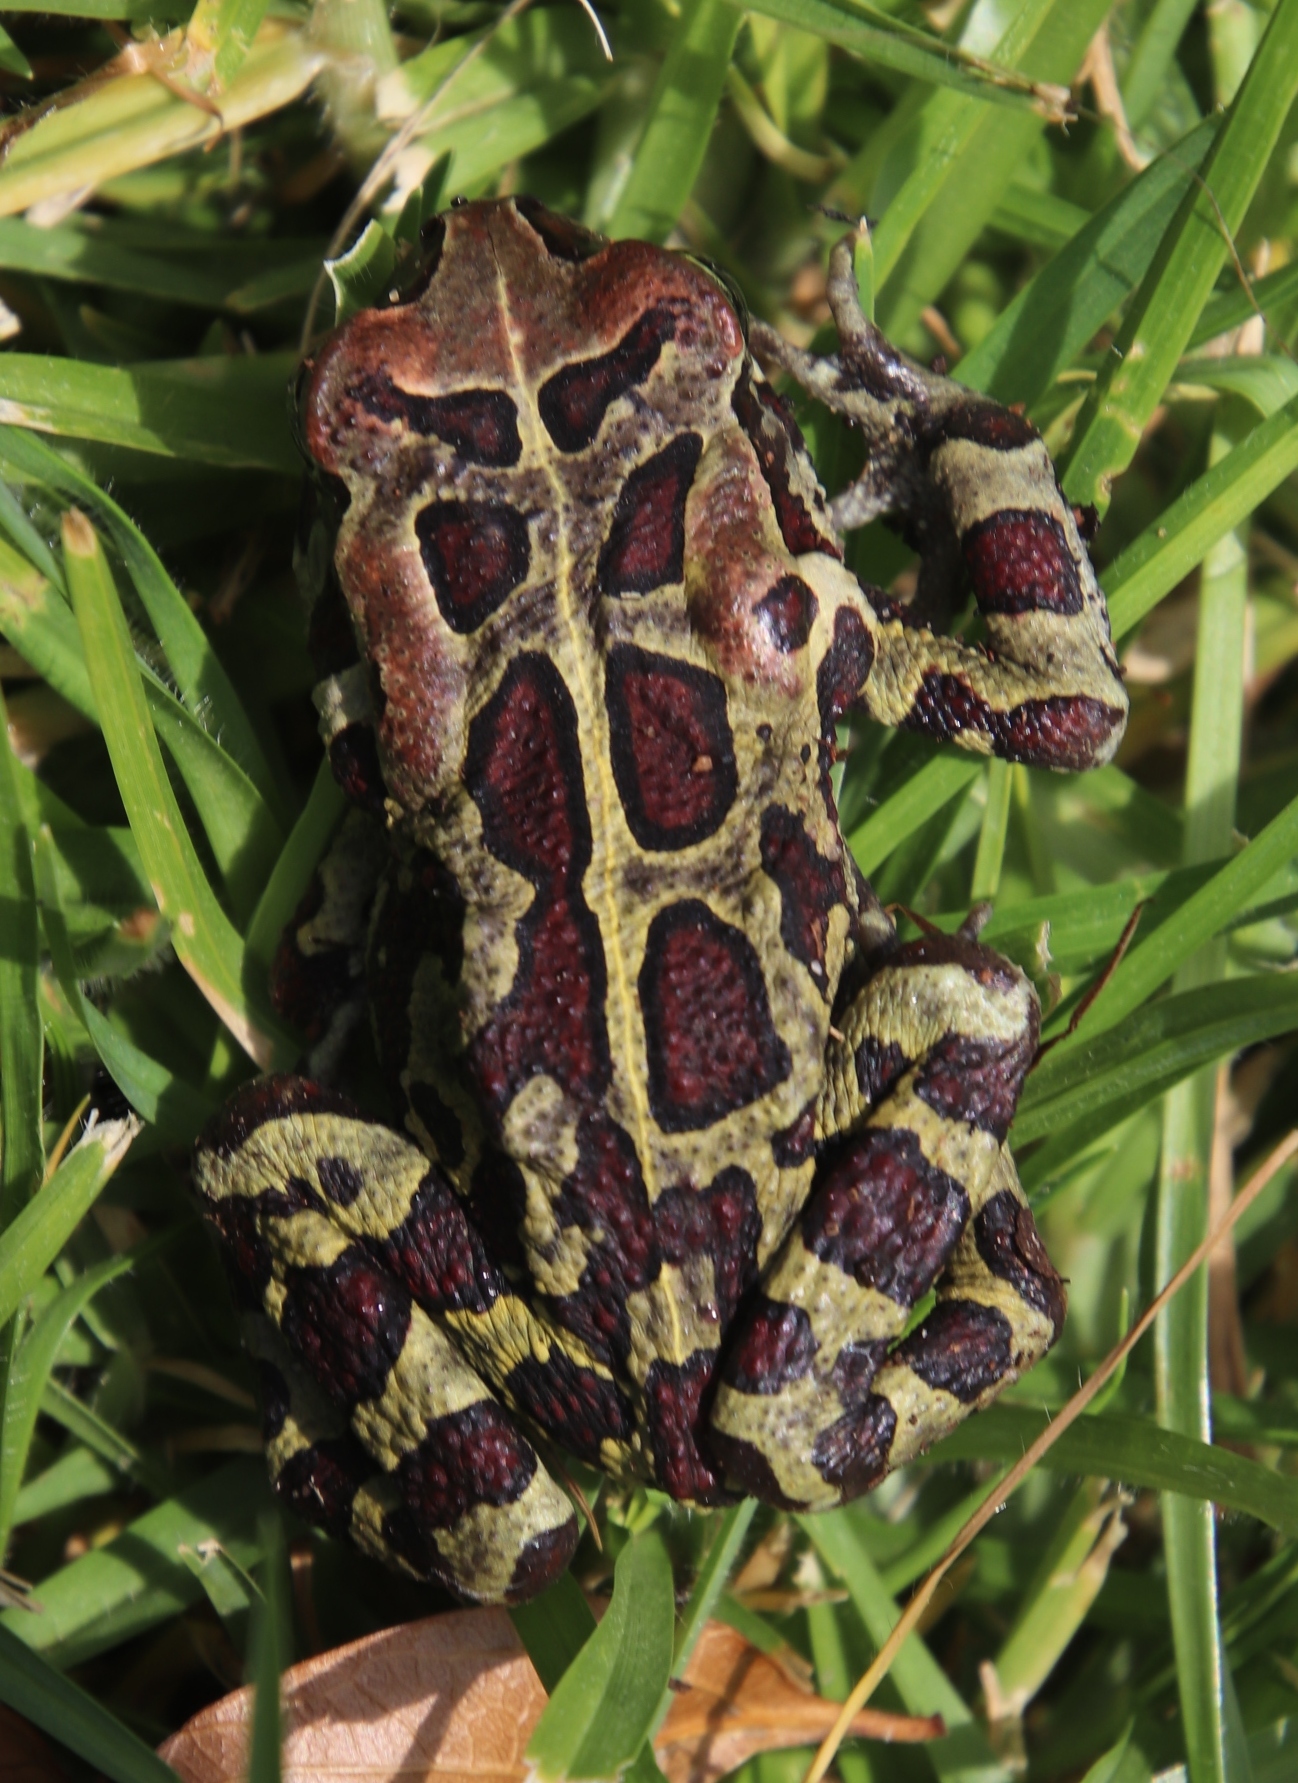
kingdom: Animalia
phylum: Chordata
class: Amphibia
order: Anura
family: Bufonidae
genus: Sclerophrys
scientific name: Sclerophrys pantherina
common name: Panther toad
